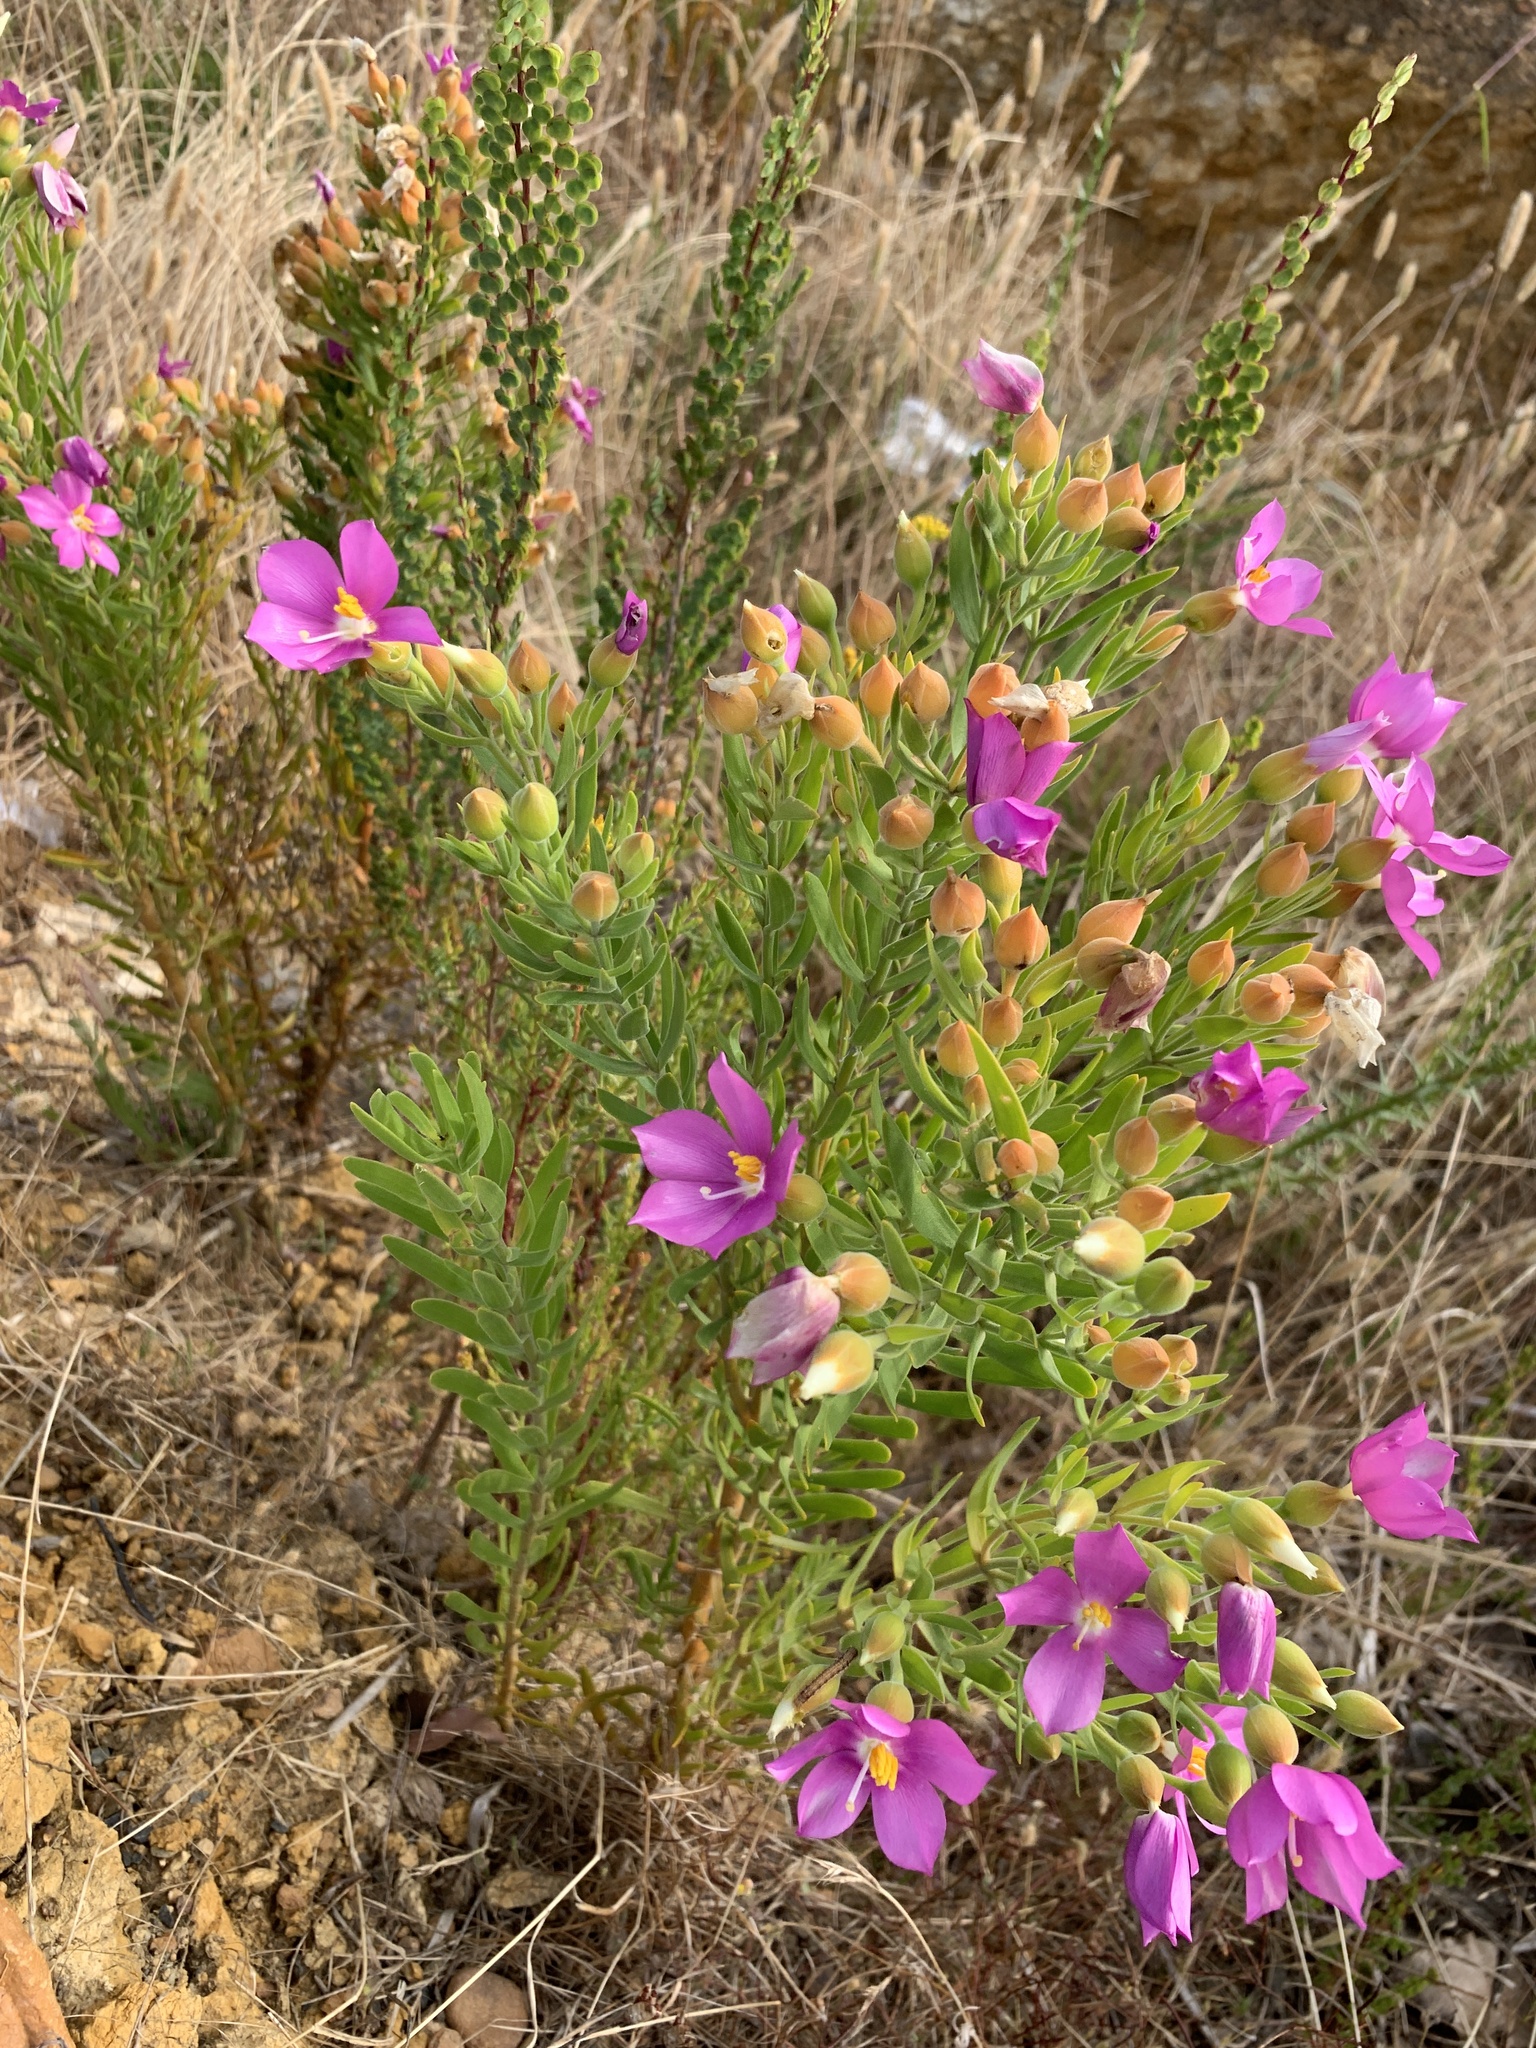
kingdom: Plantae
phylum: Tracheophyta
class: Magnoliopsida
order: Gentianales
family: Gentianaceae
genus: Orphium
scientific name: Orphium frutescens
